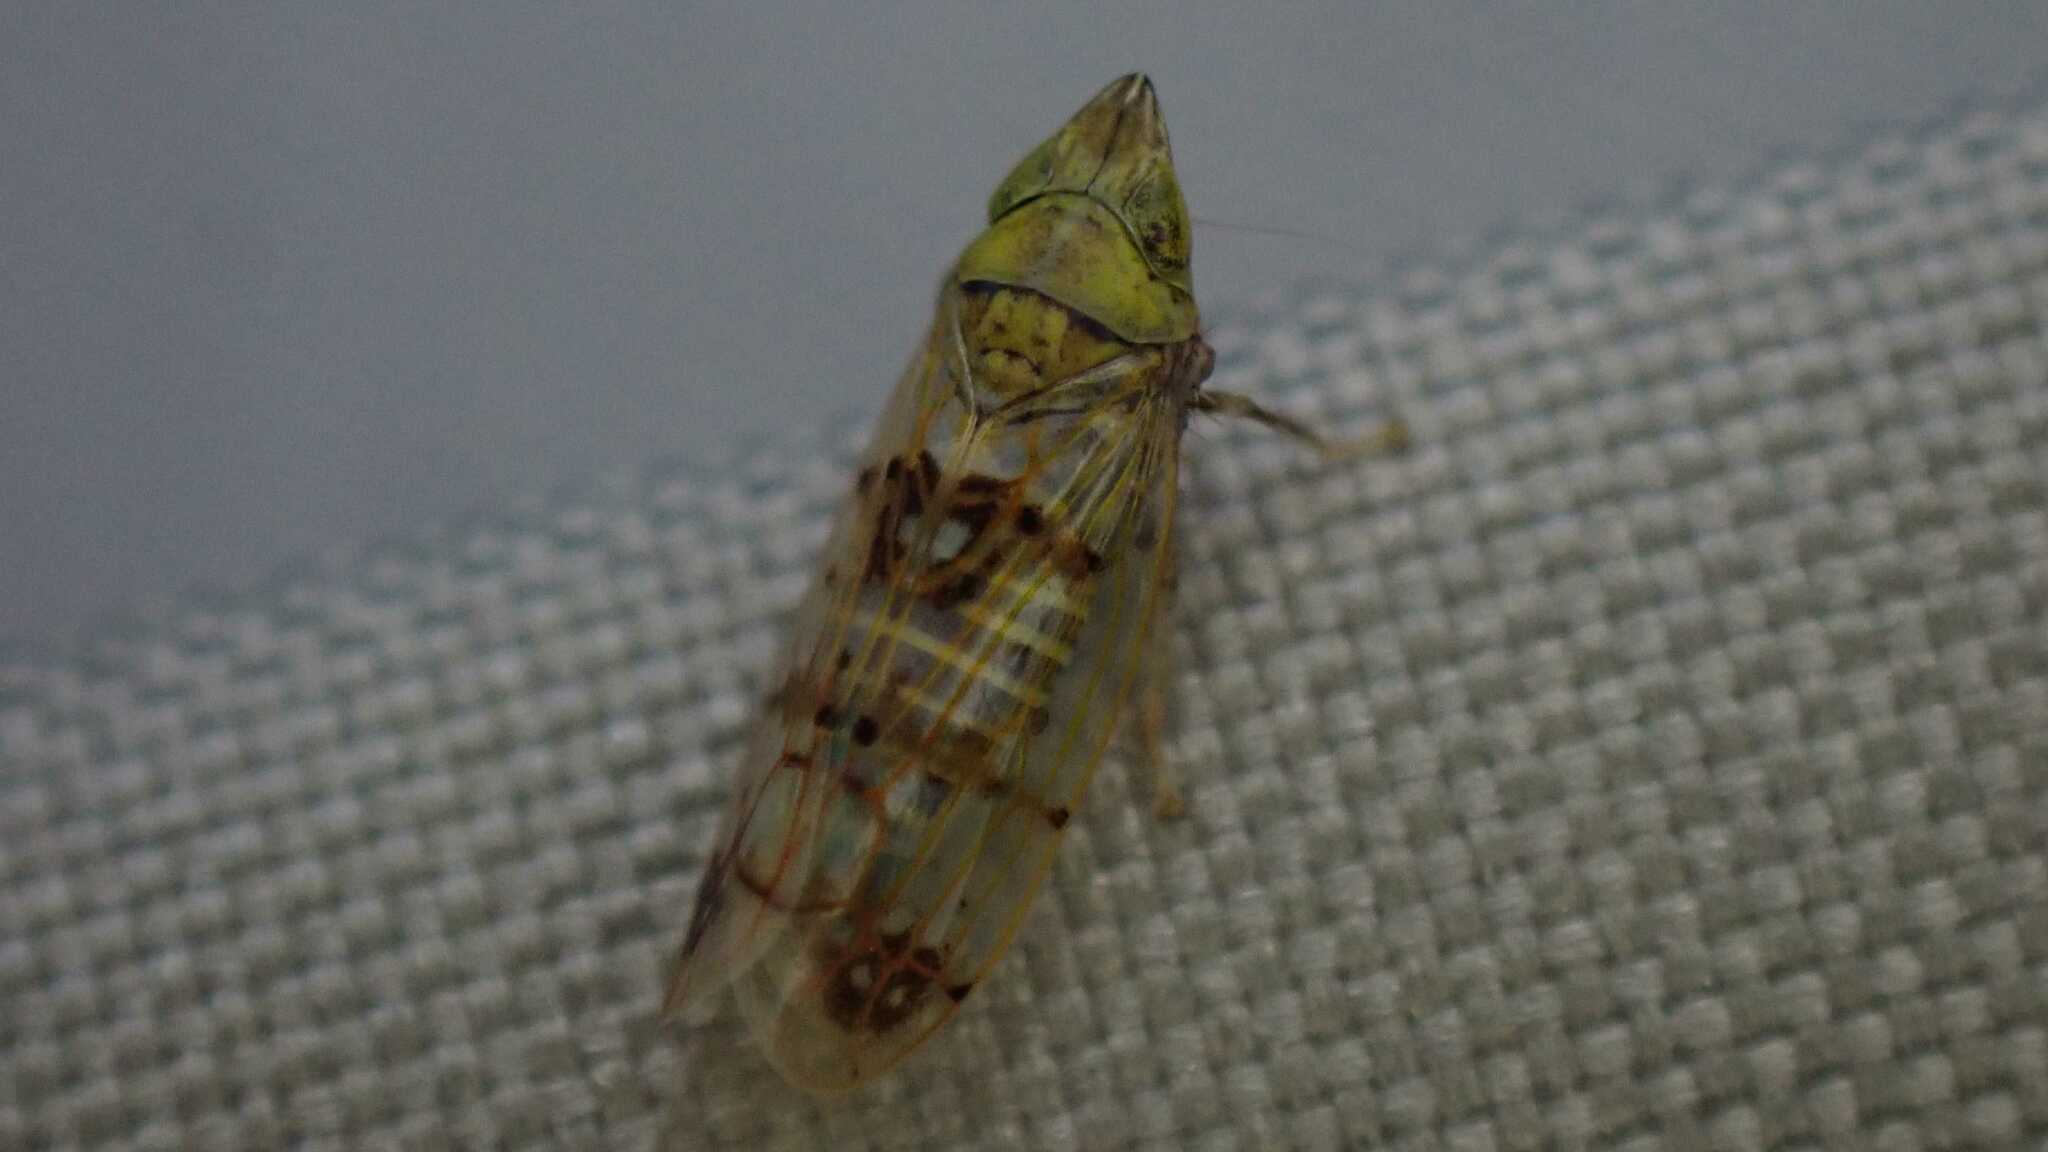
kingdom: Animalia
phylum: Arthropoda
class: Insecta
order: Hemiptera
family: Cicadellidae
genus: Japananus
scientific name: Japananus hyalinus
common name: The japanese maple leafhopper
